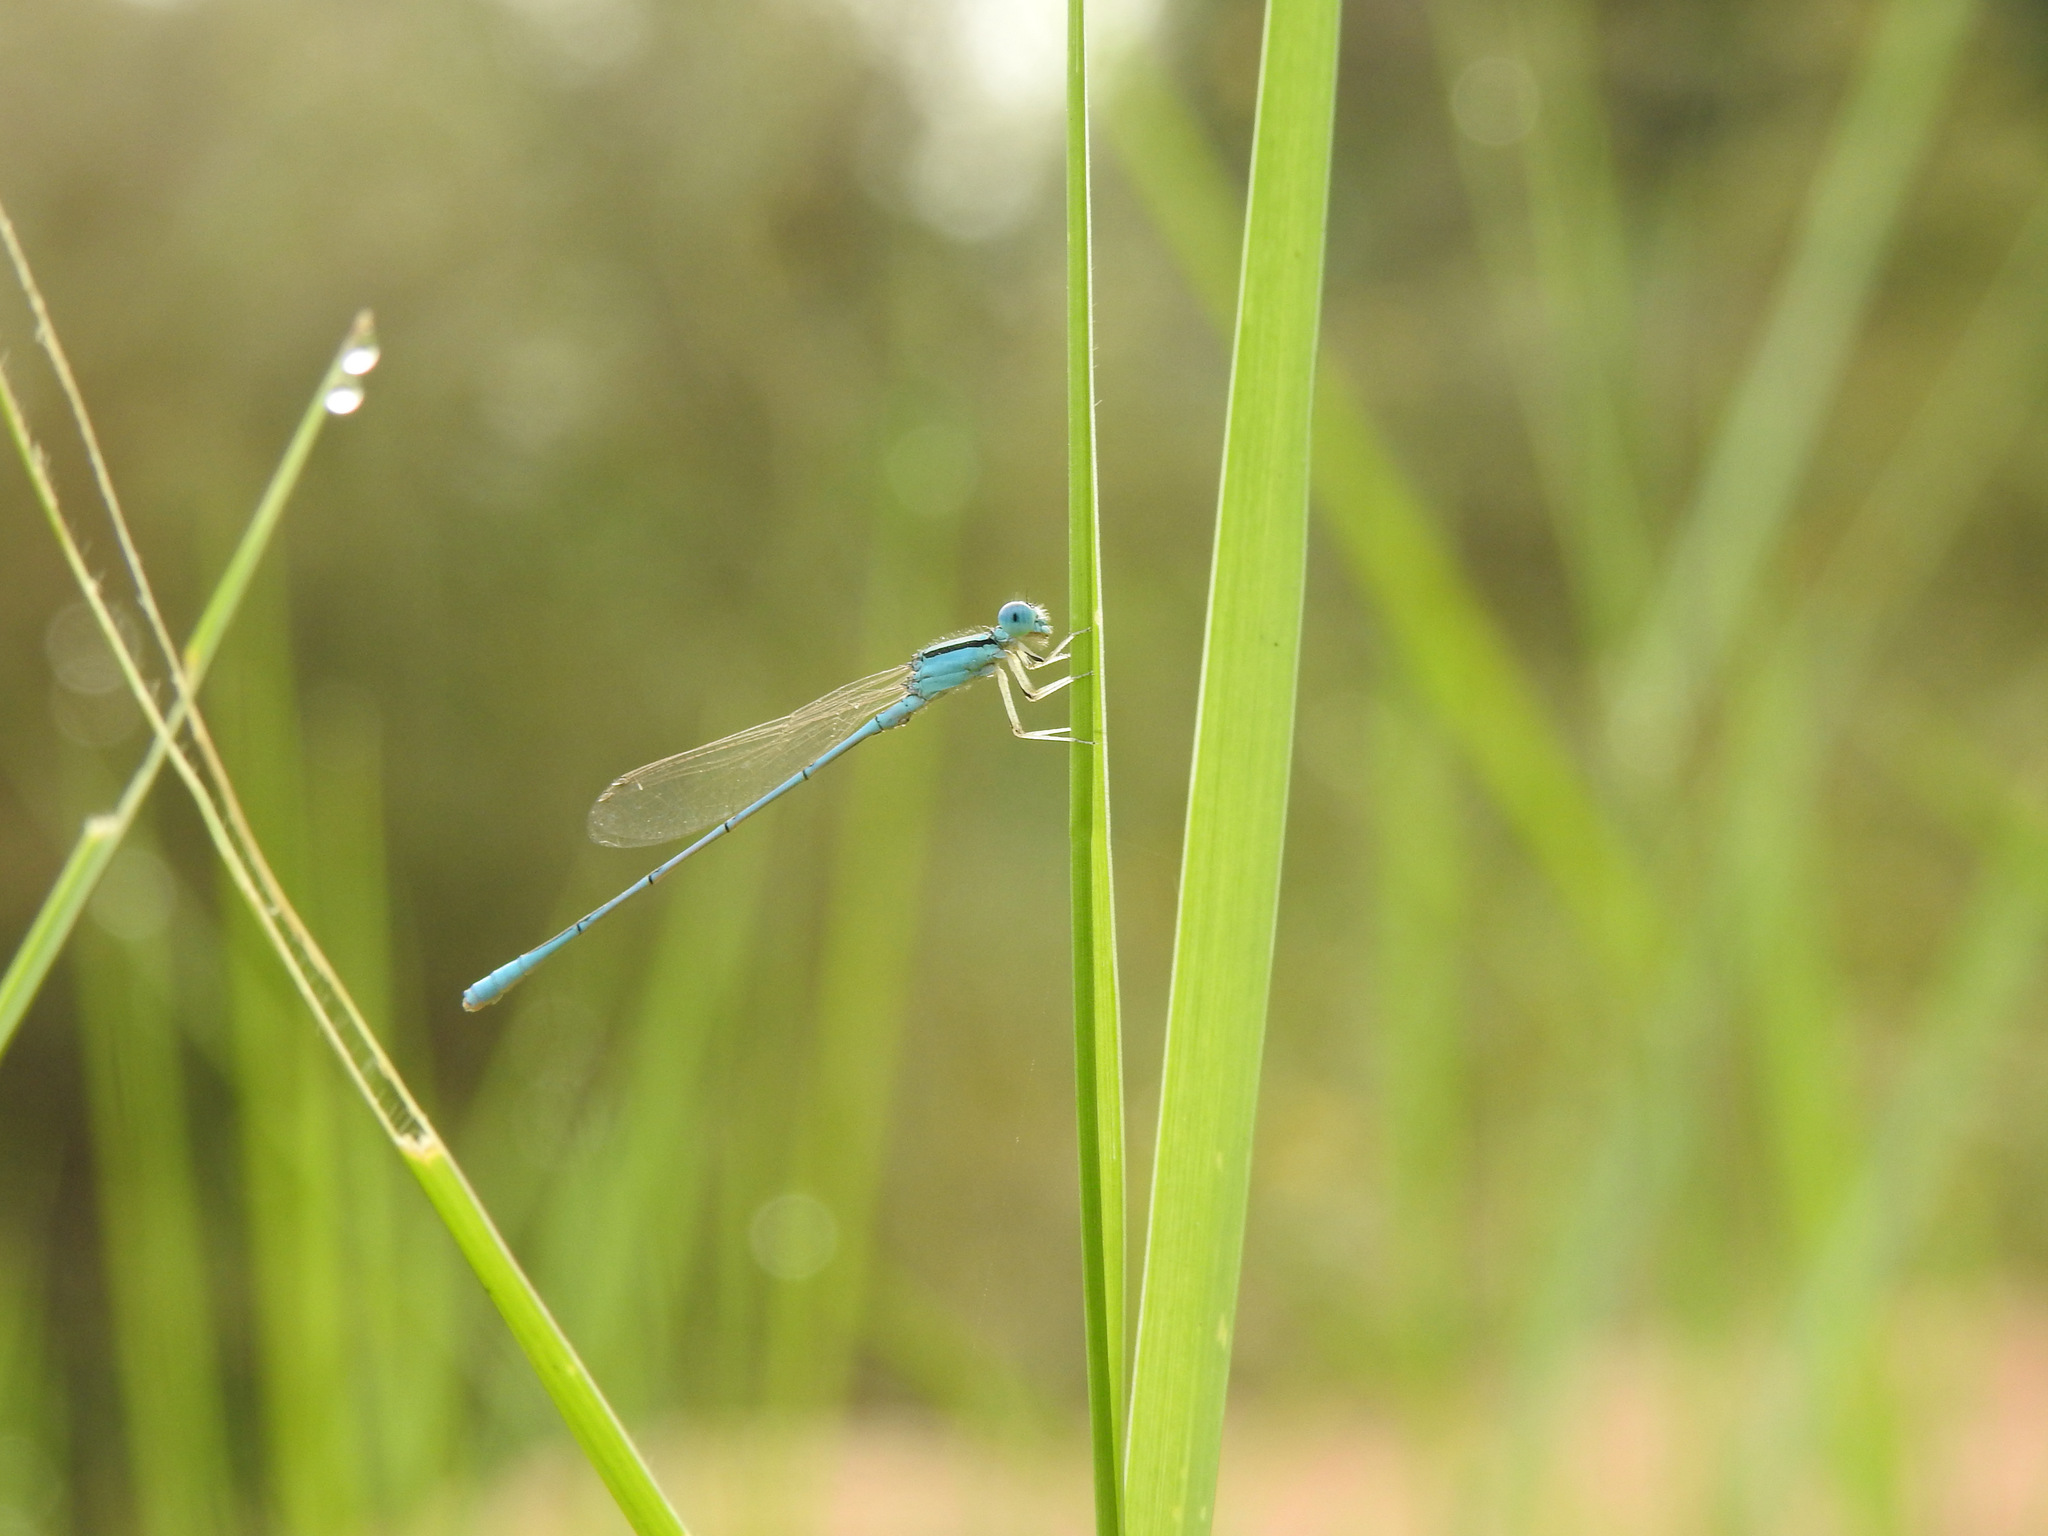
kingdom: Animalia
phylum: Arthropoda
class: Insecta
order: Odonata
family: Coenagrionidae
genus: Amphiallagma
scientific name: Amphiallagma parvum
